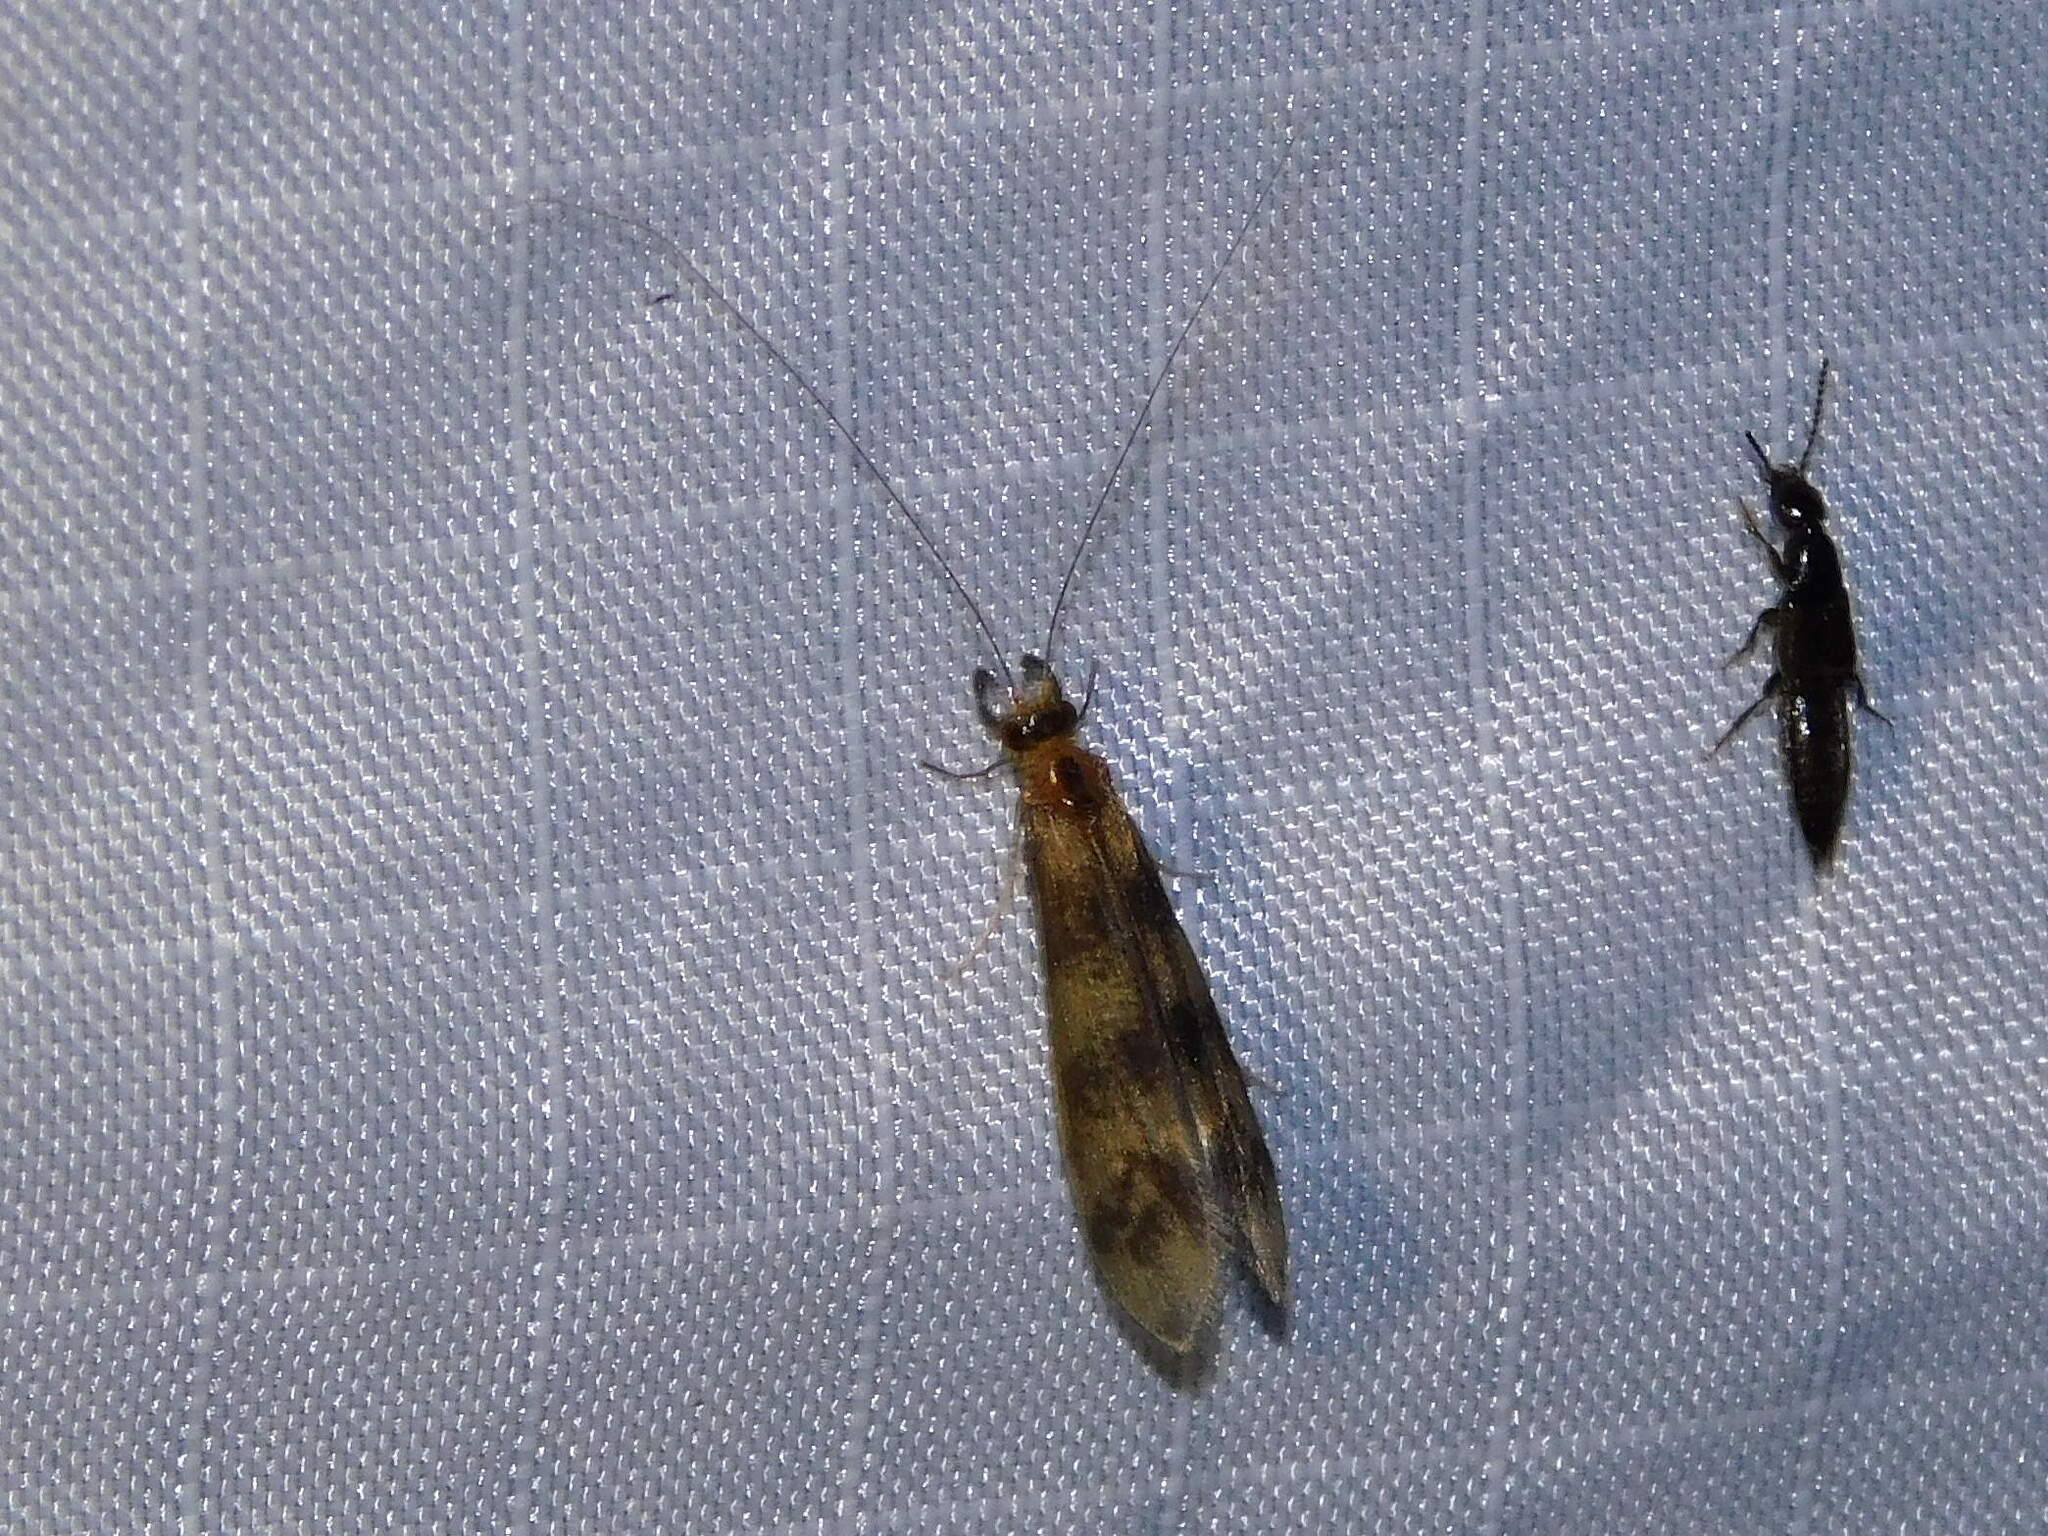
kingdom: Animalia
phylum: Arthropoda
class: Insecta
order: Trichoptera
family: Leptoceridae
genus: Mystacides
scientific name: Mystacides longicornis
